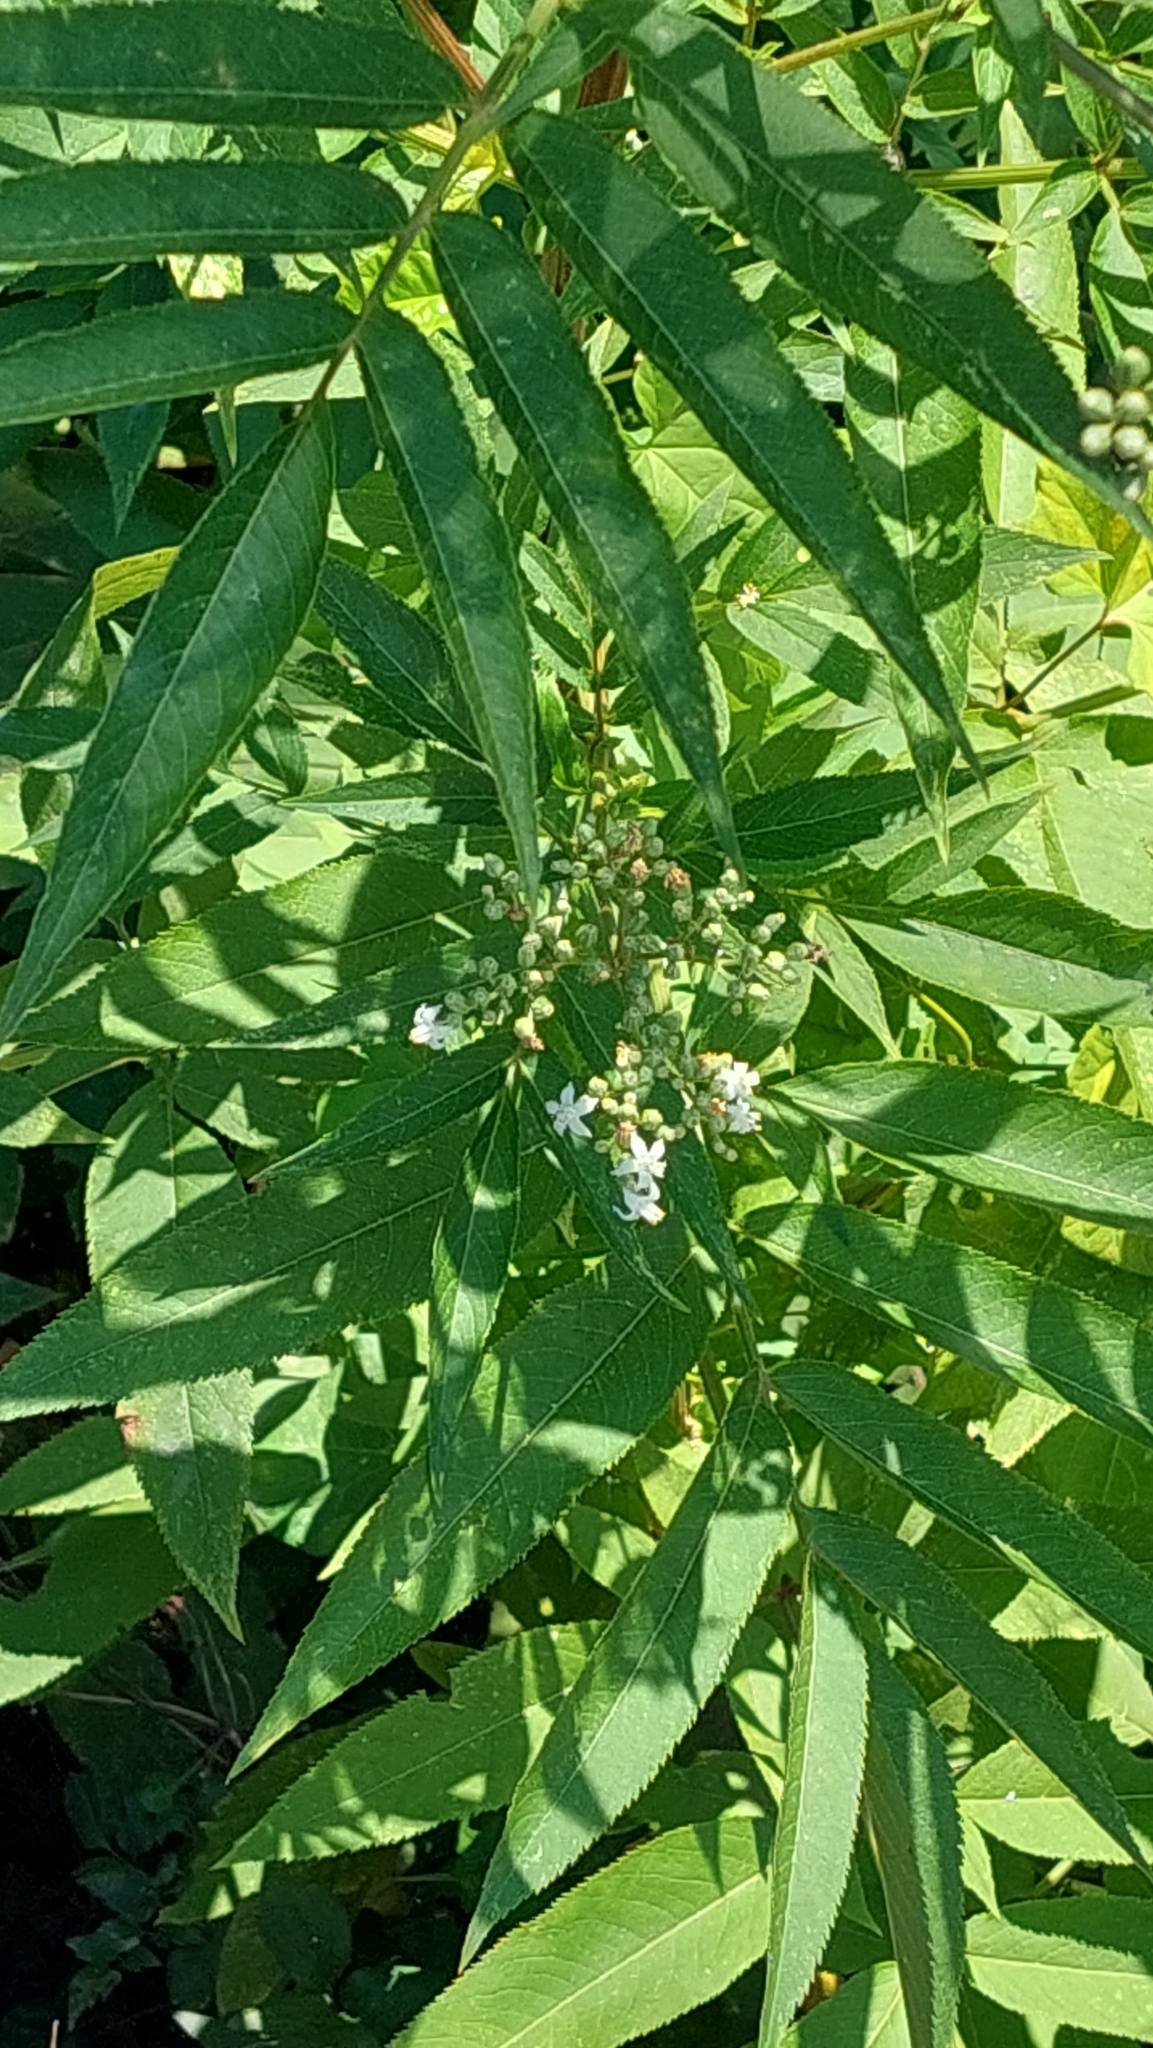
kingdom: Plantae
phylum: Tracheophyta
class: Magnoliopsida
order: Dipsacales
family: Viburnaceae
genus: Sambucus
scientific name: Sambucus ebulus
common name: Dwarf elder
